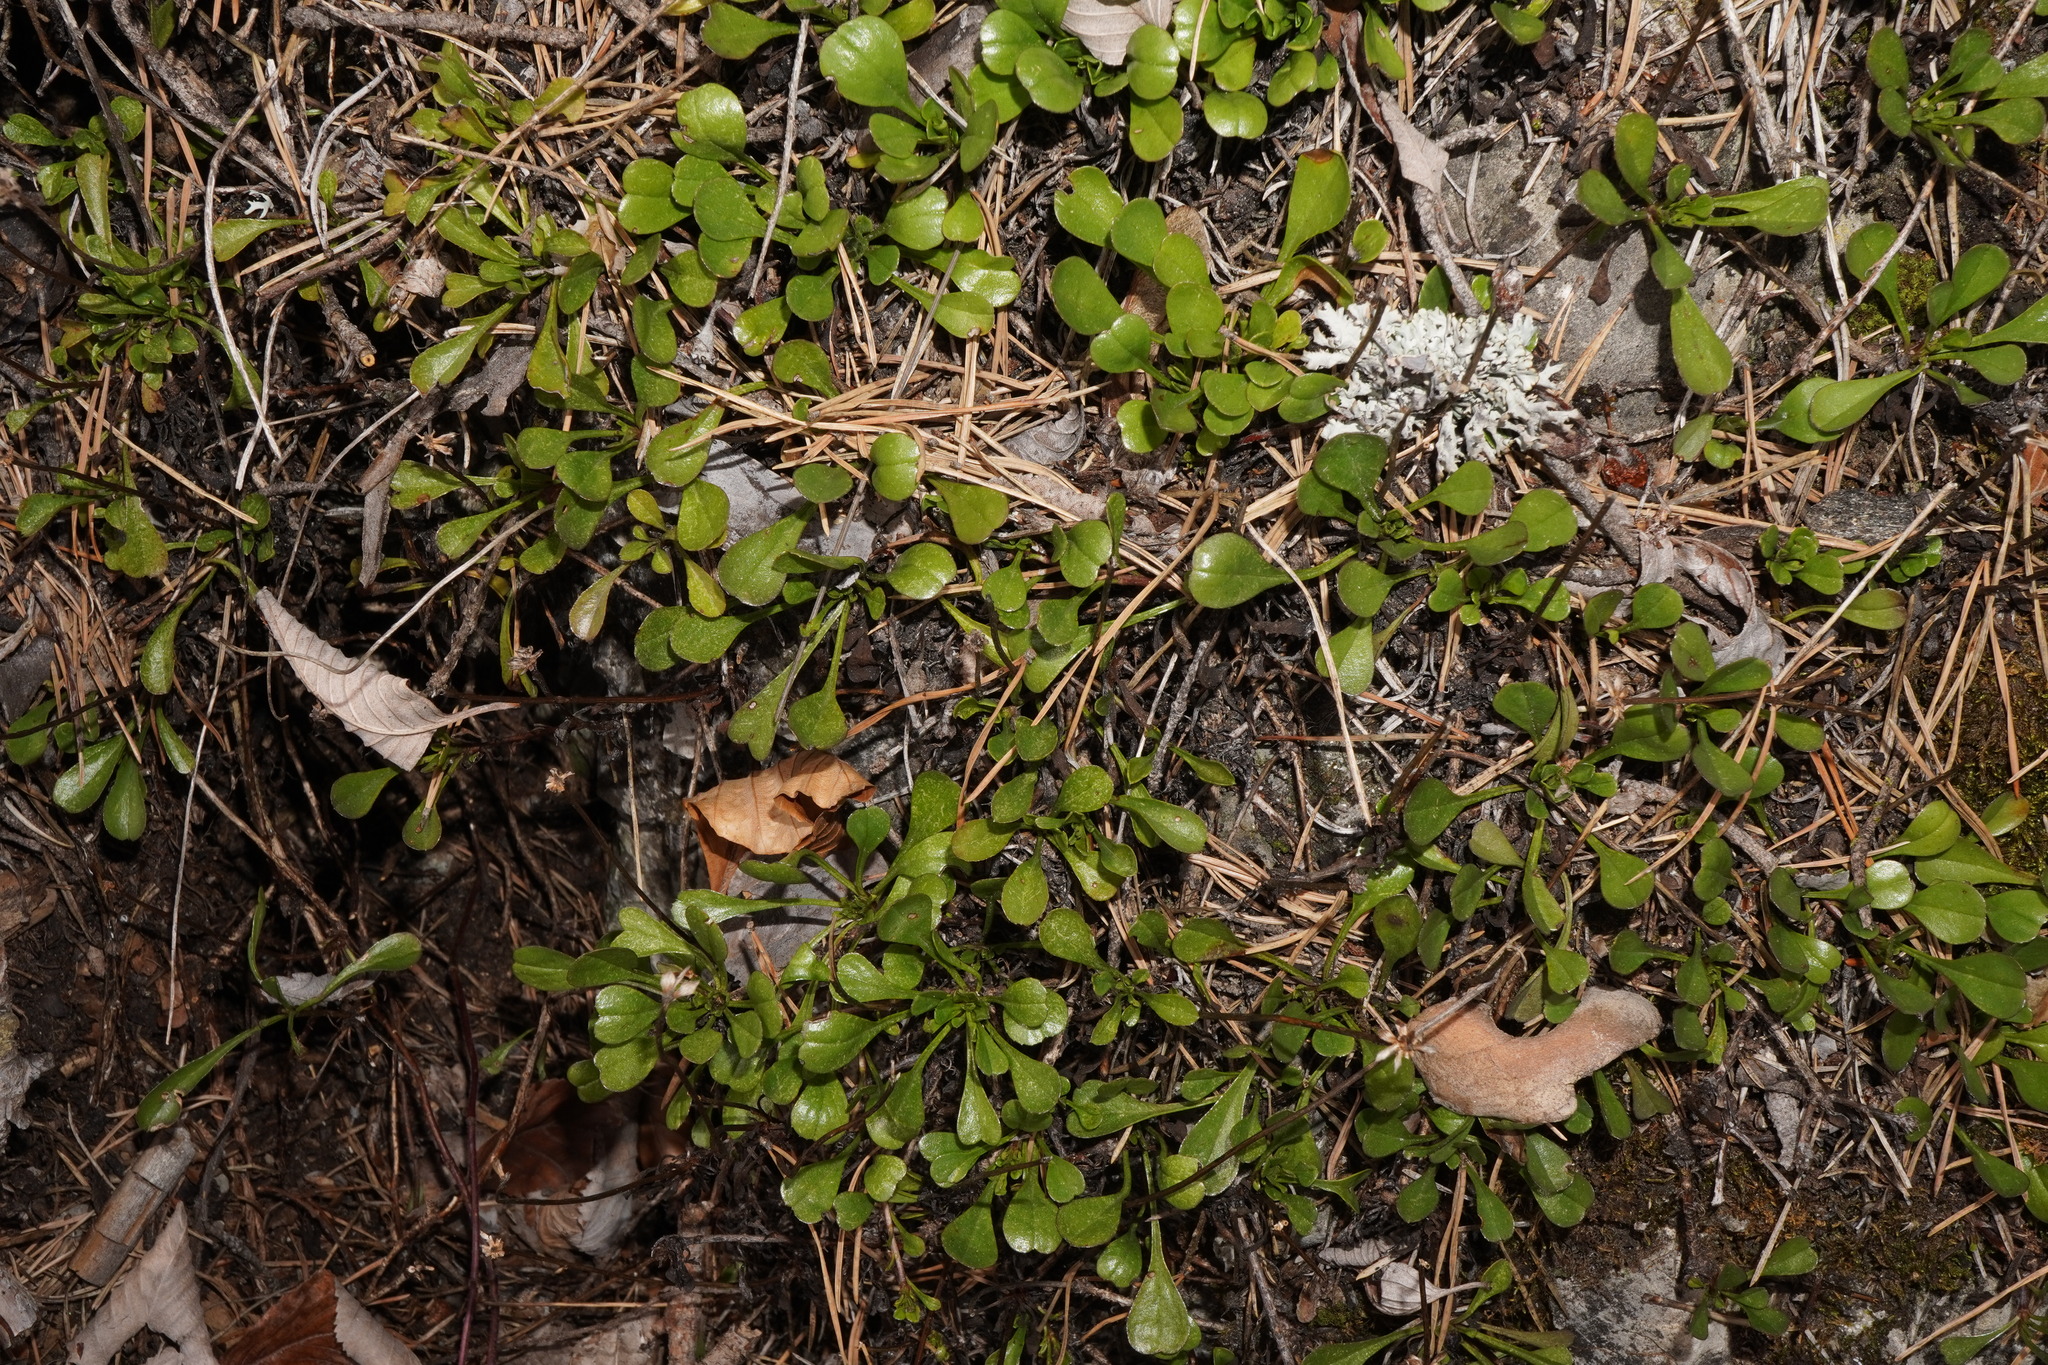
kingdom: Plantae
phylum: Tracheophyta
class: Magnoliopsida
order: Lamiales
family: Plantaginaceae
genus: Globularia
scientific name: Globularia cordifolia
